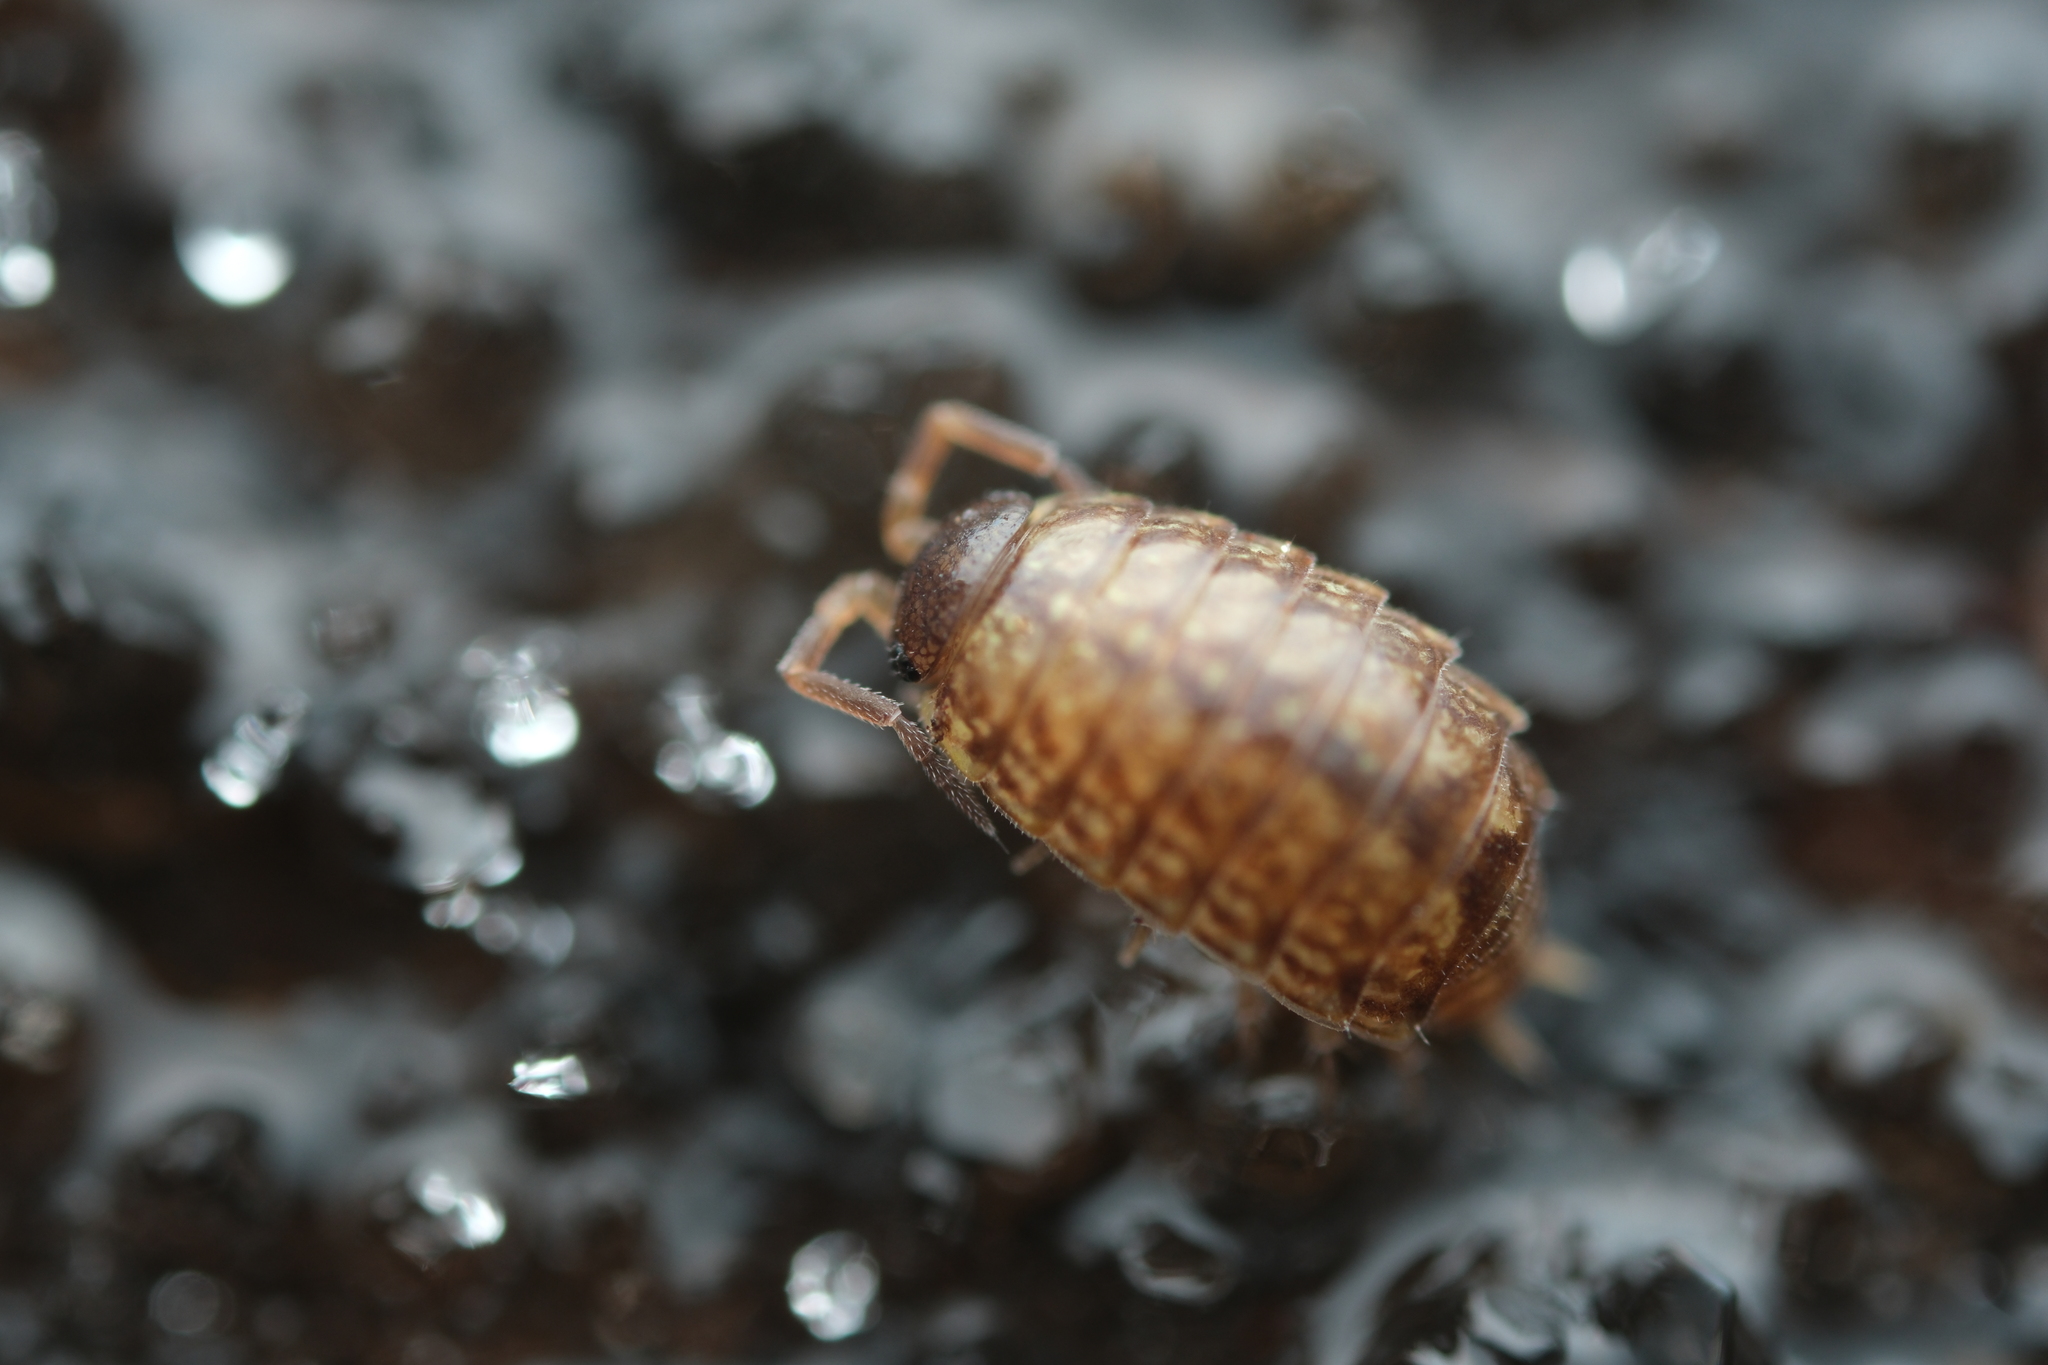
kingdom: Animalia
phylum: Arthropoda
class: Malacostraca
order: Isopoda
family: Philosciidae
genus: Philoscia
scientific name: Philoscia muscorum
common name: Common striped woodlouse
